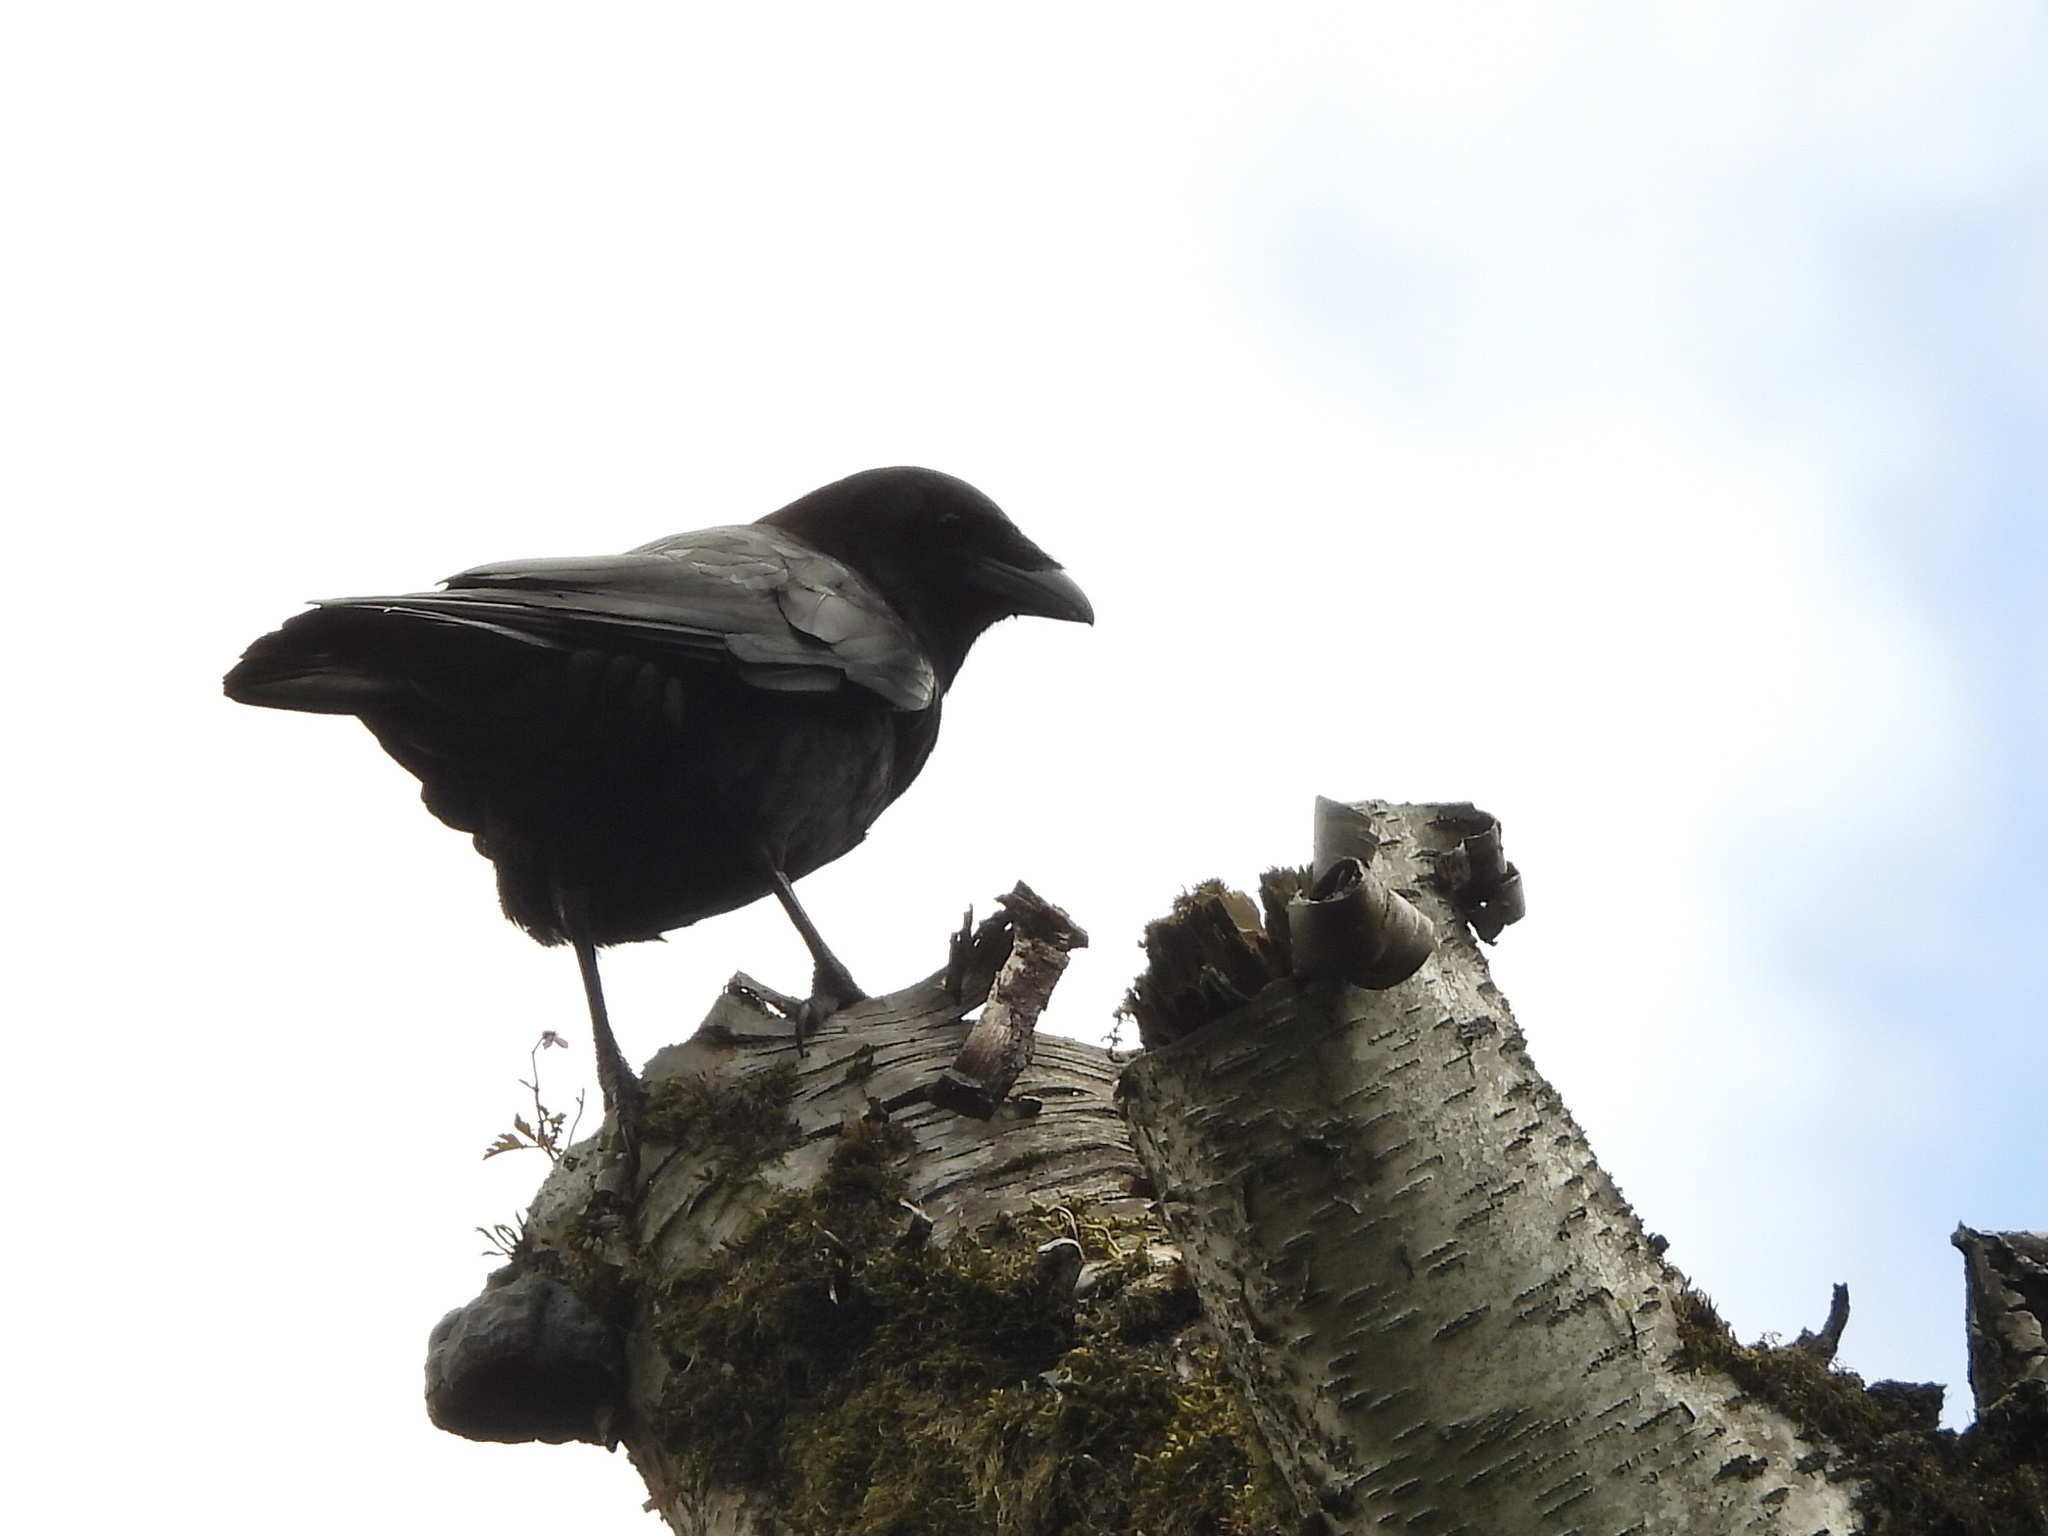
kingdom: Animalia
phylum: Chordata
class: Aves
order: Passeriformes
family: Corvidae
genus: Corvus
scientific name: Corvus brachyrhynchos
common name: American crow
